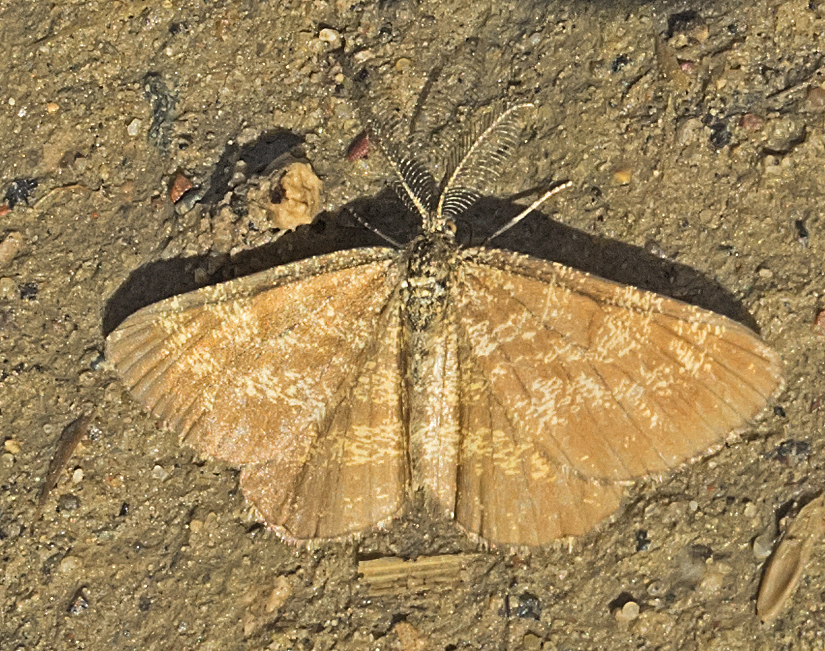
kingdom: Animalia
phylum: Arthropoda
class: Insecta
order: Lepidoptera
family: Geometridae
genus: Ematurga
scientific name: Ematurga atomaria
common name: Common heath
